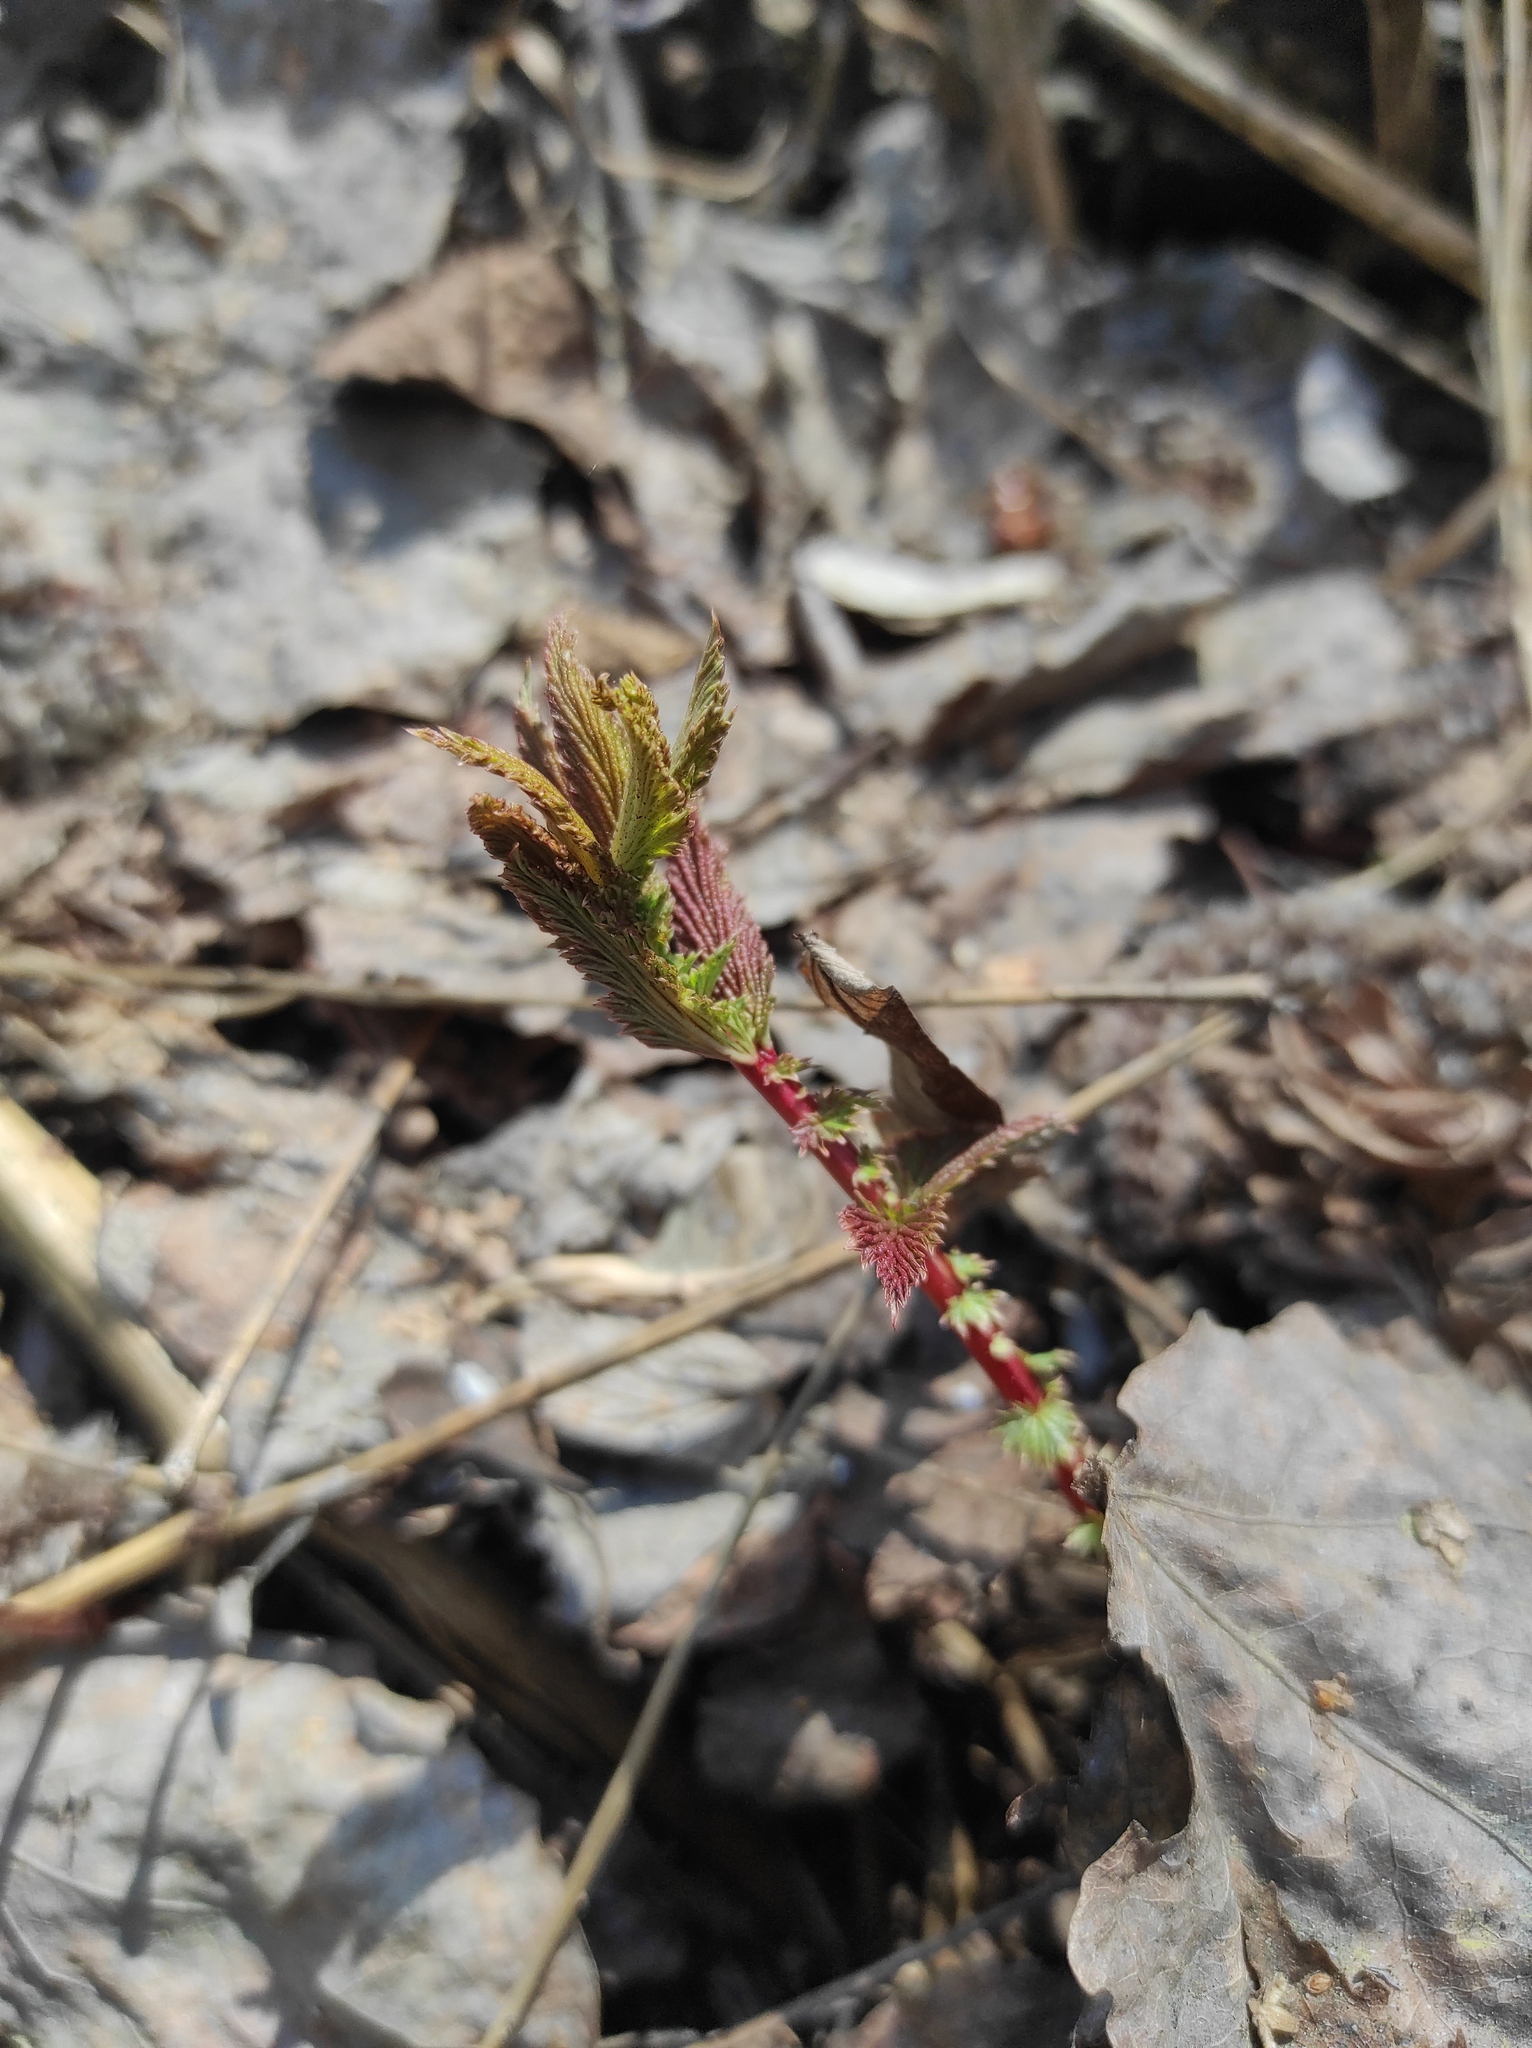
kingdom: Plantae
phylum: Tracheophyta
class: Magnoliopsida
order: Apiales
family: Apiaceae
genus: Aegopodium
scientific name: Aegopodium podagraria
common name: Ground-elder
